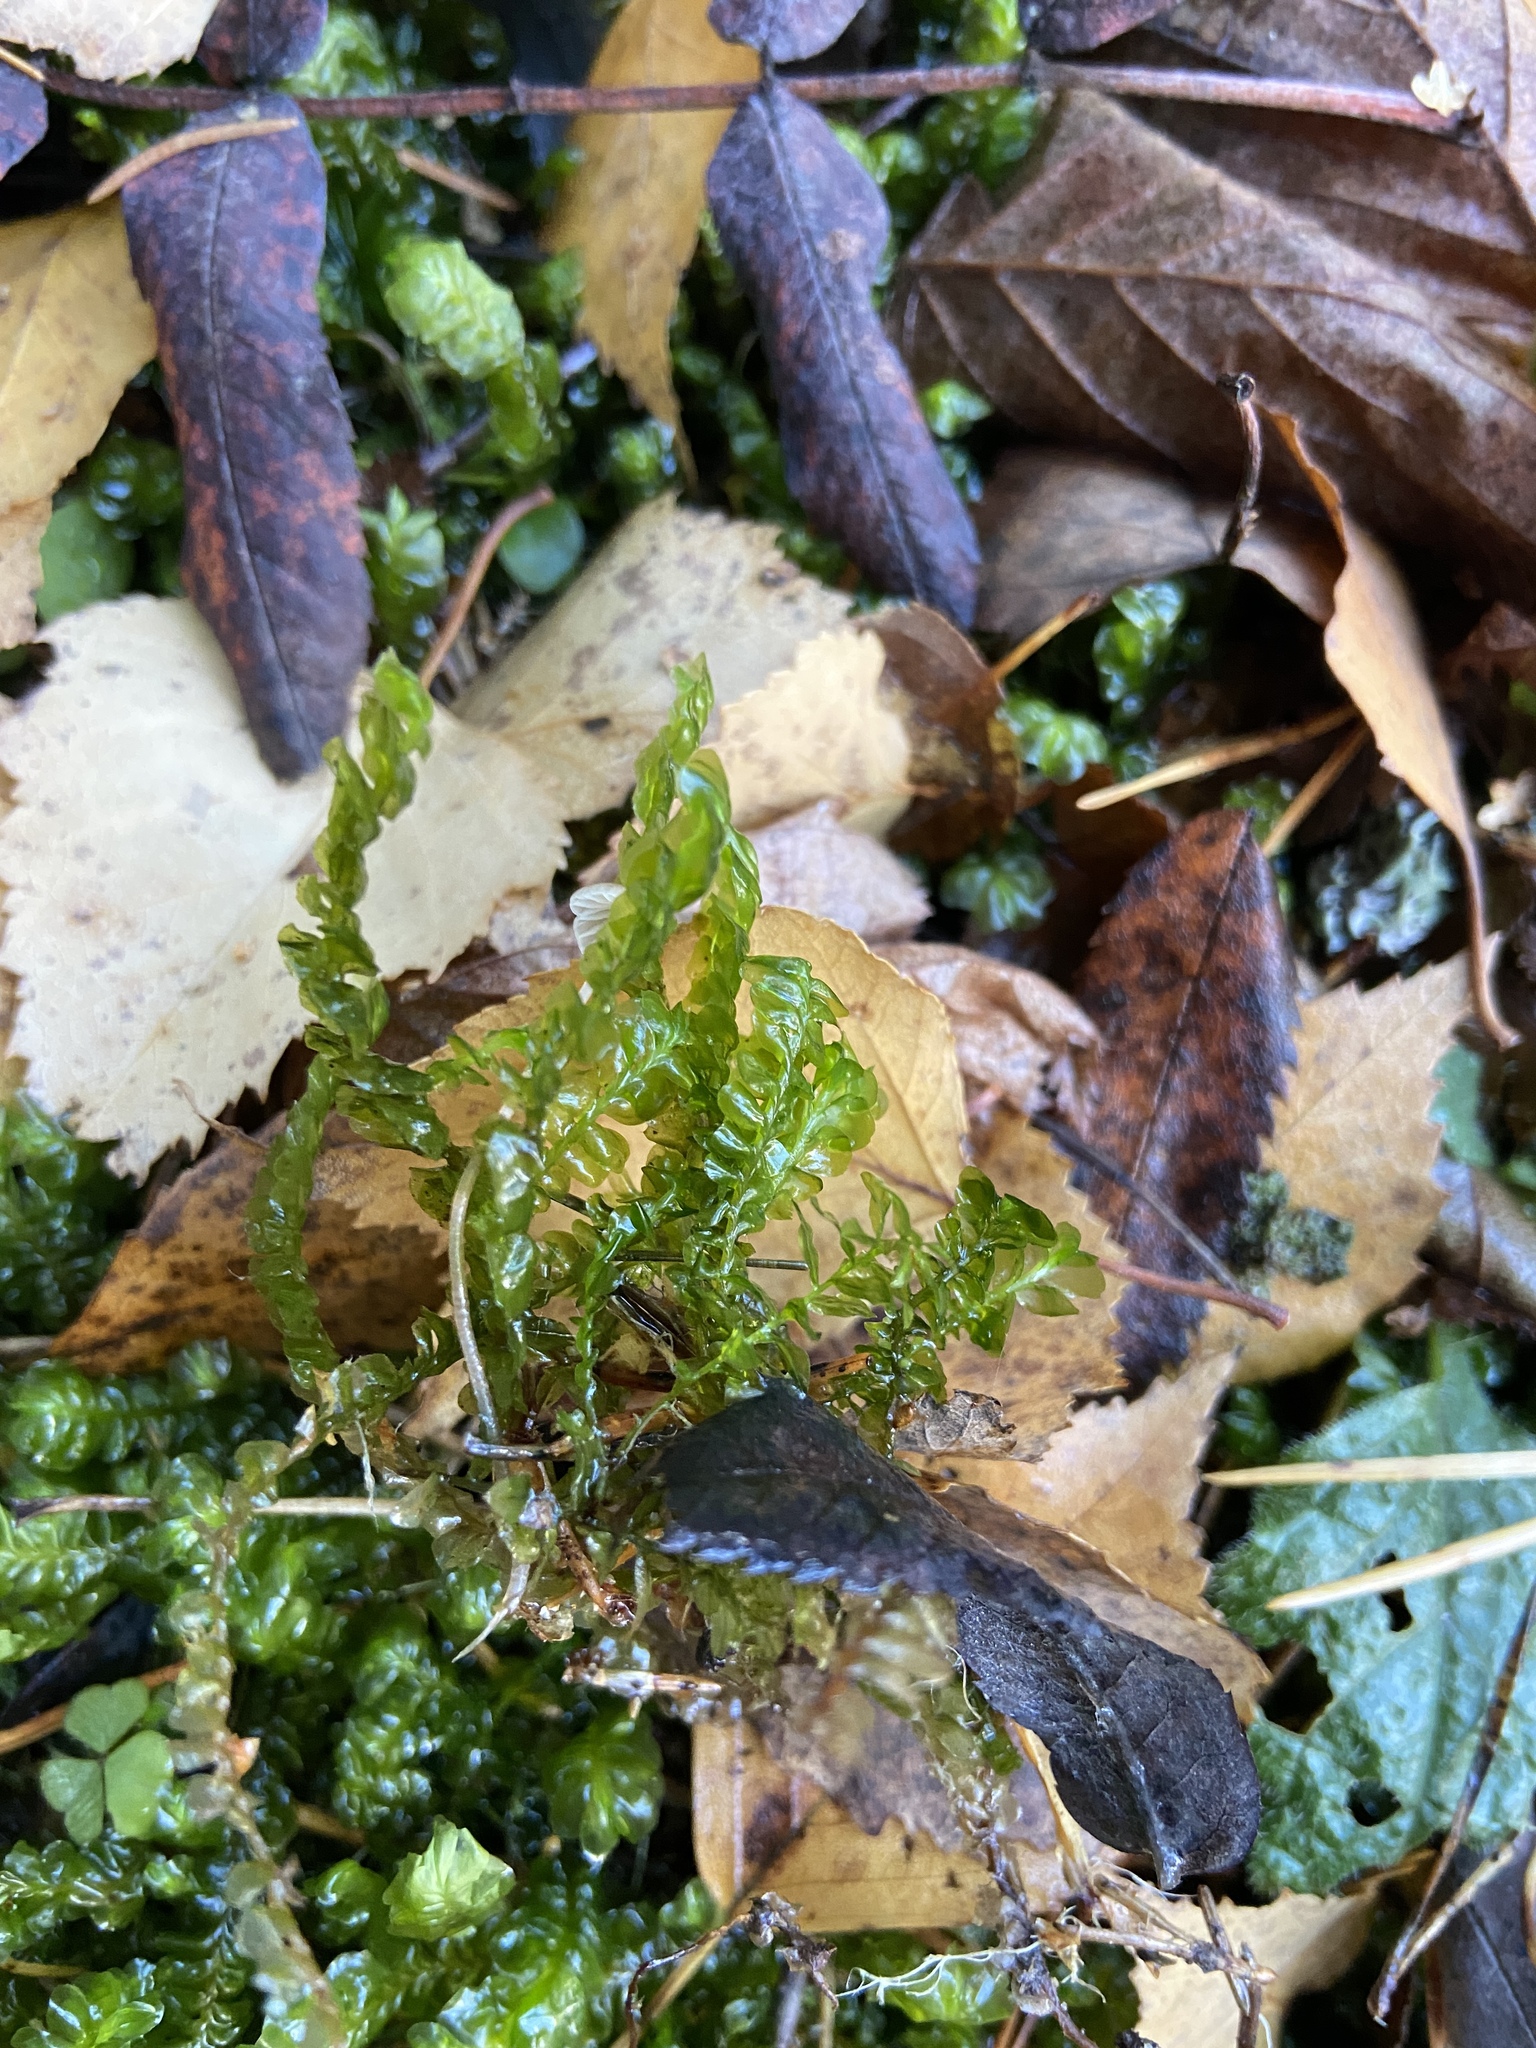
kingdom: Plantae
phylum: Marchantiophyta
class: Jungermanniopsida
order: Jungermanniales
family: Plagiochilaceae
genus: Plagiochila
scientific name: Plagiochila asplenioides
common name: Greater featherwort
